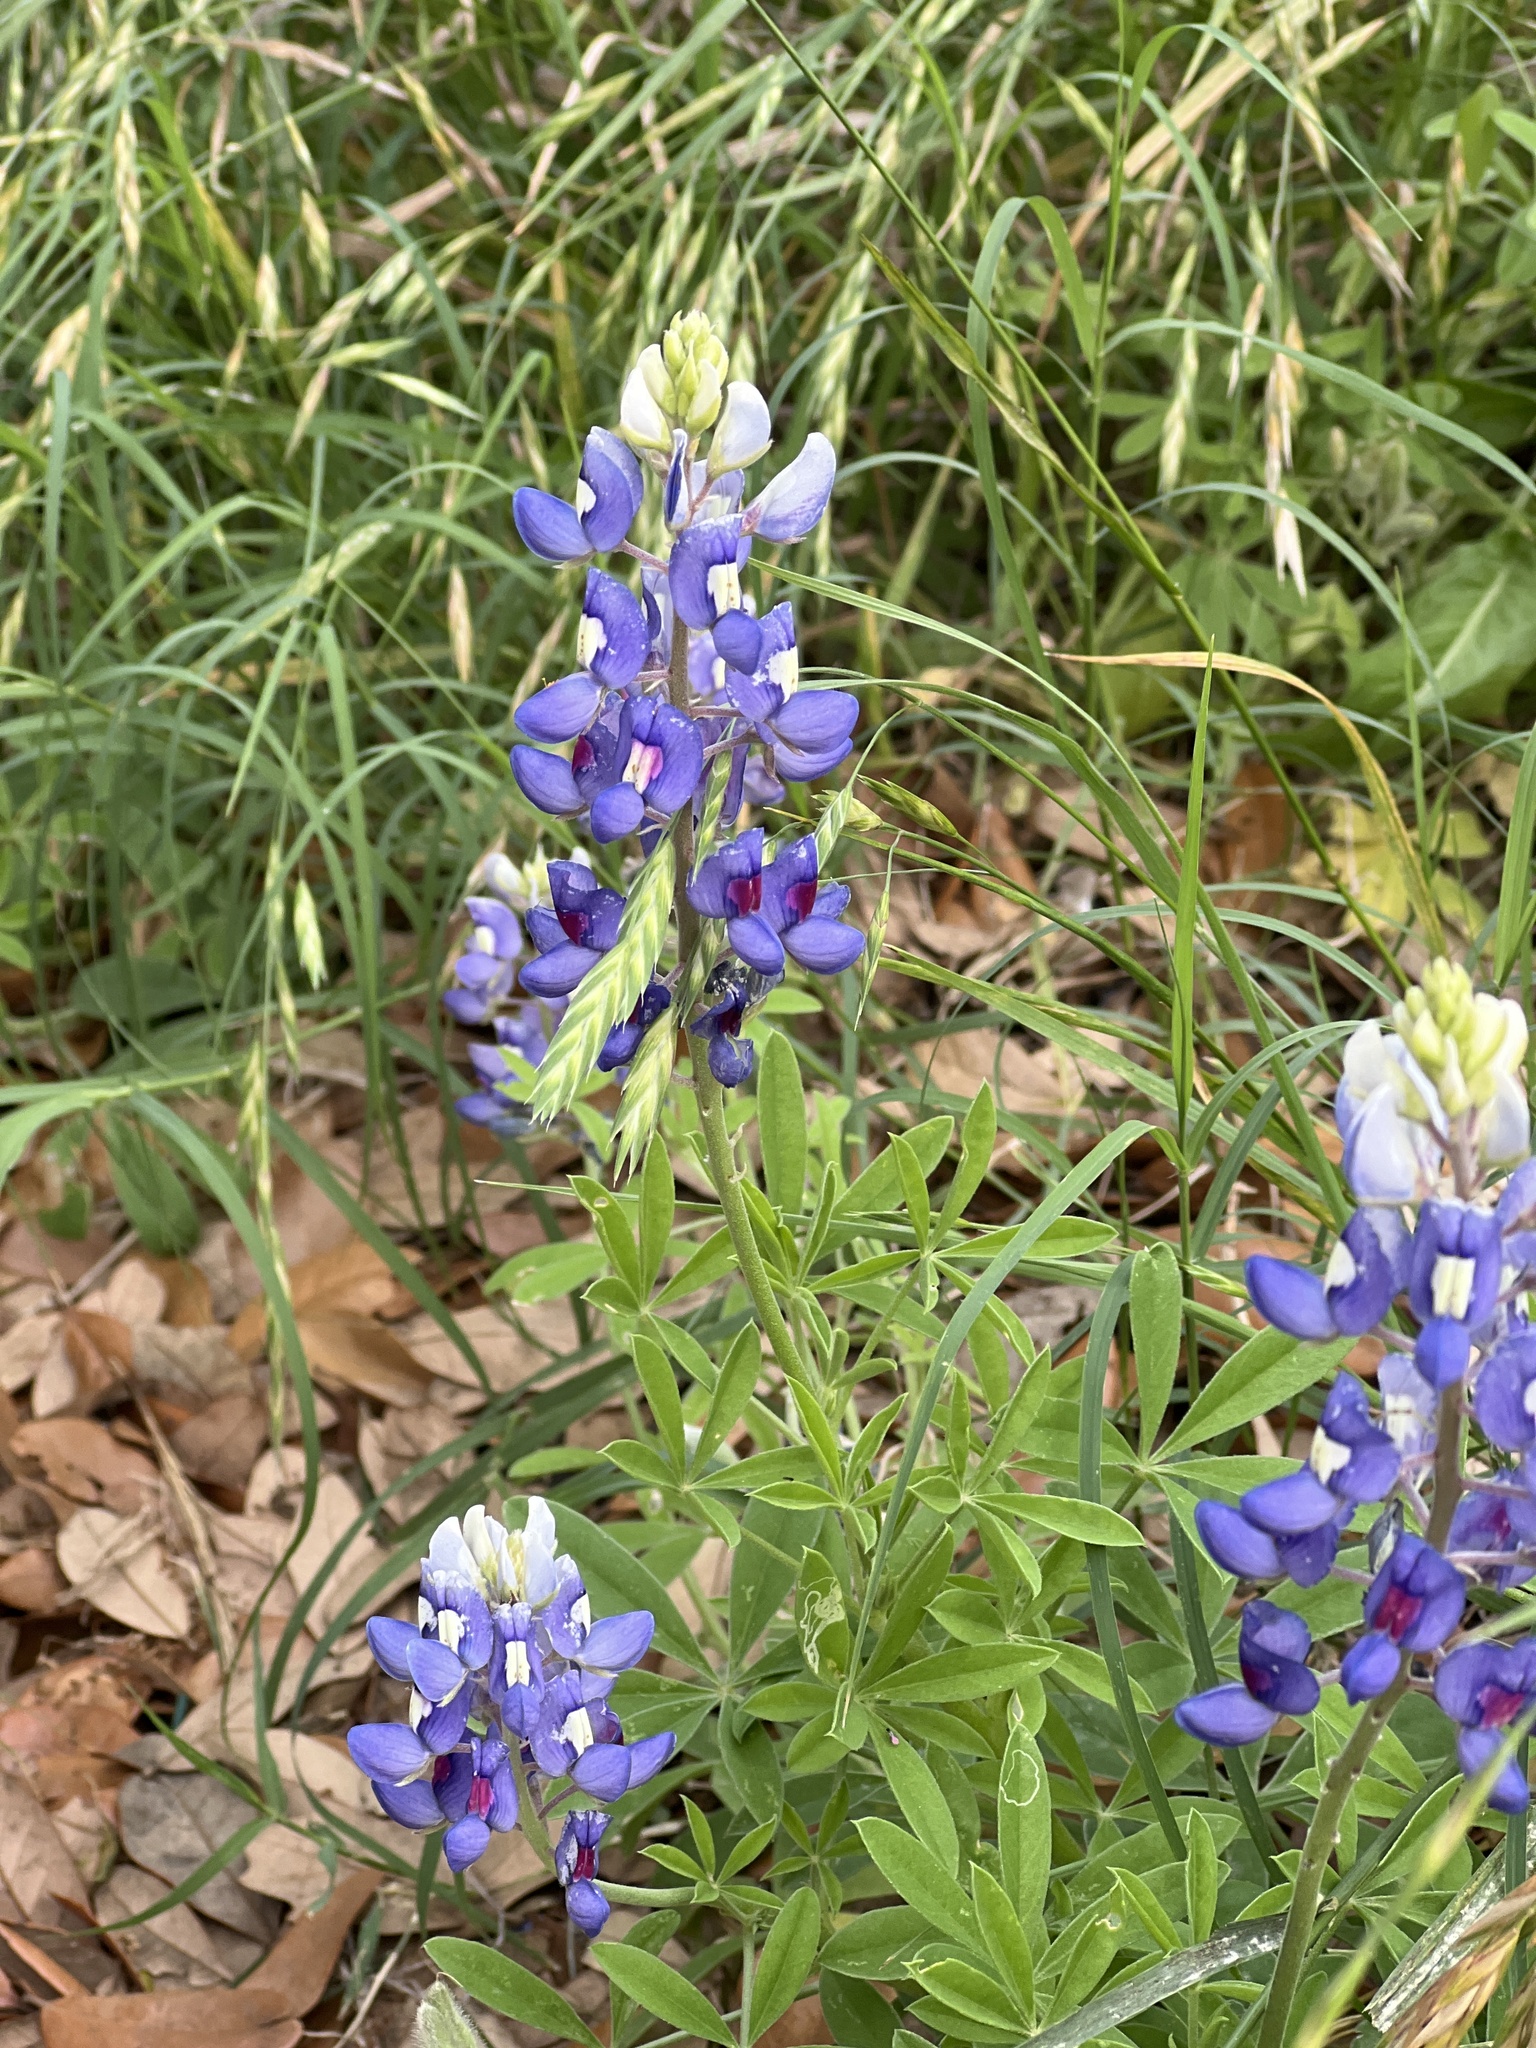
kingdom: Plantae
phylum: Tracheophyta
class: Magnoliopsida
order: Fabales
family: Fabaceae
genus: Lupinus
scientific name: Lupinus texensis
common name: Texas bluebonnet
